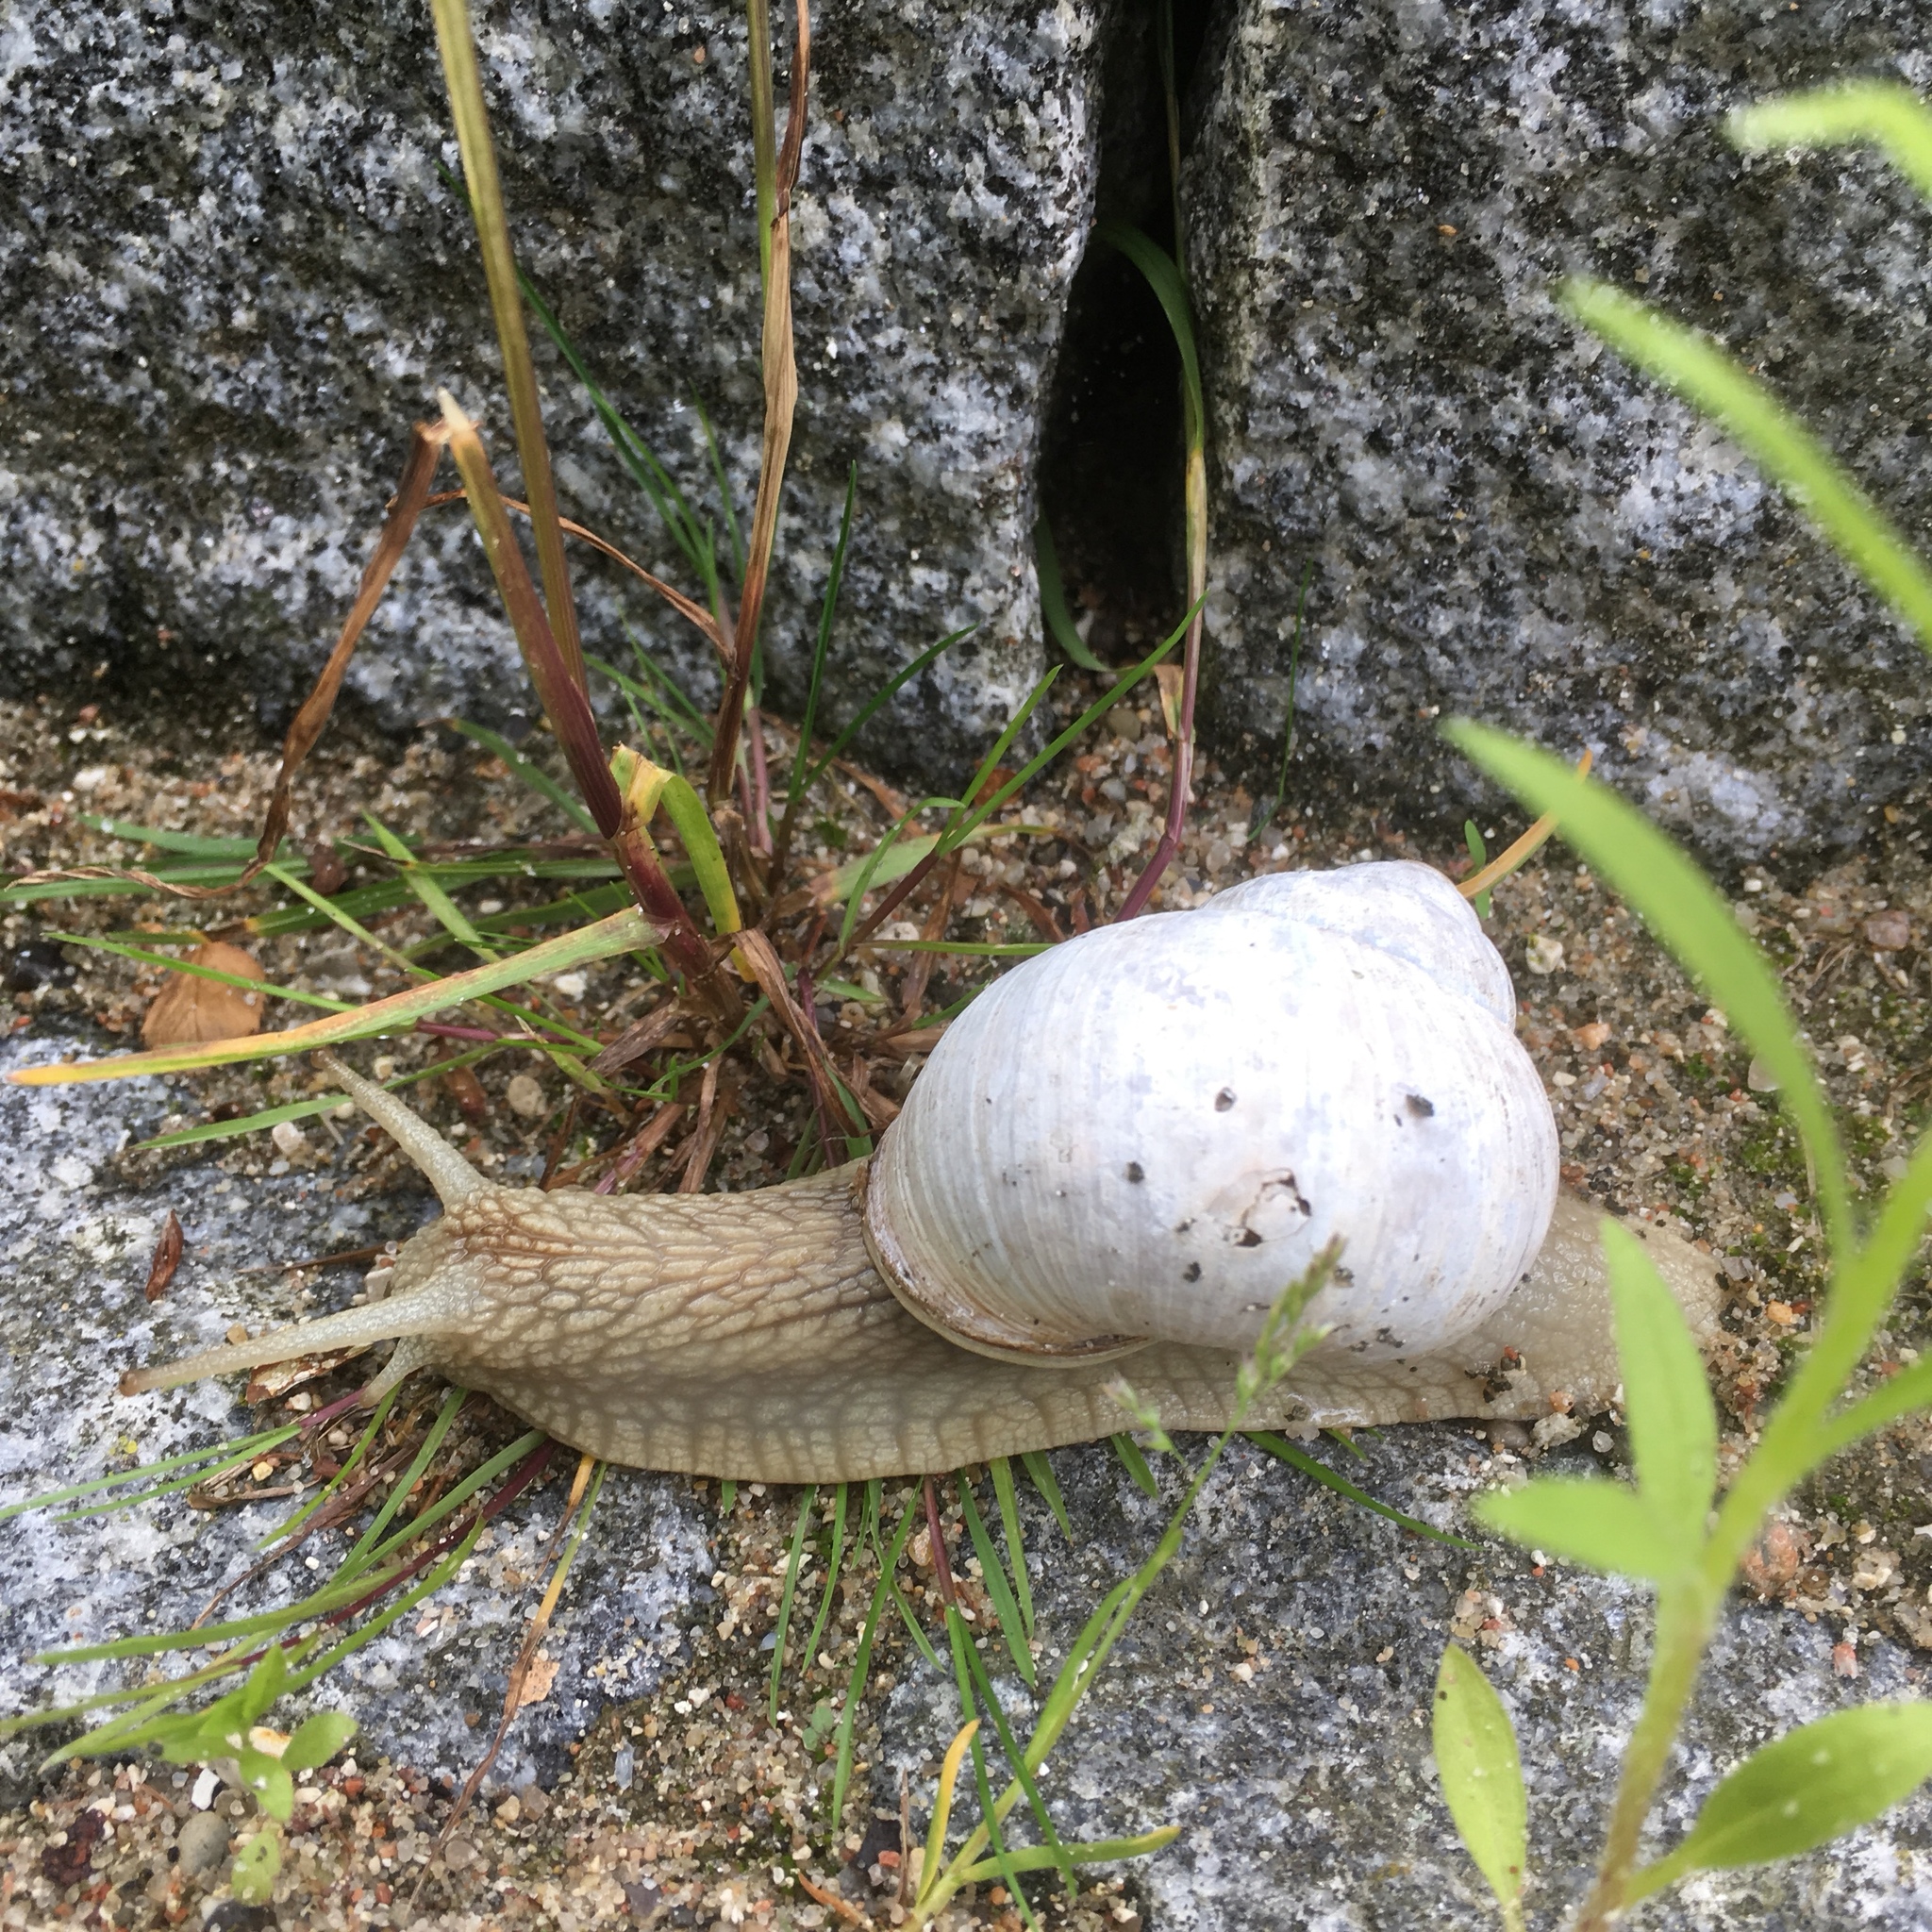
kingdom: Animalia
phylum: Mollusca
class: Gastropoda
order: Stylommatophora
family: Helicidae
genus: Helix
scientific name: Helix pomatia
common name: Roman snail
